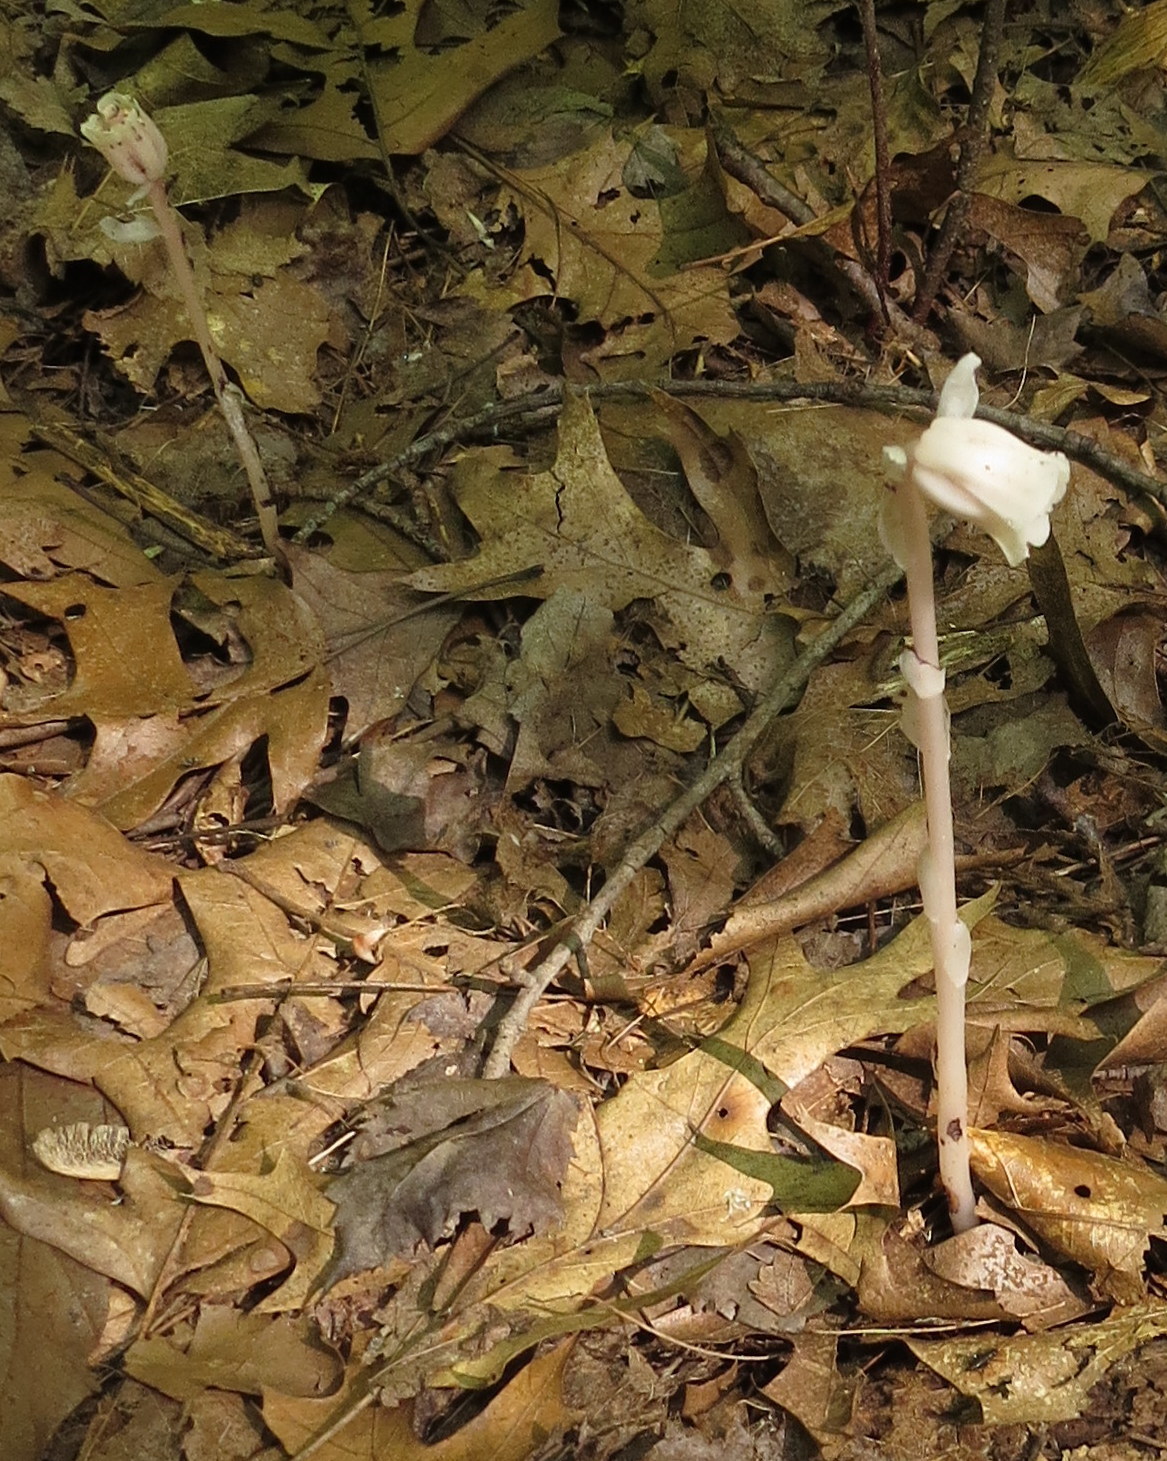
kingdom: Plantae
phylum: Tracheophyta
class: Magnoliopsida
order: Ericales
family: Ericaceae
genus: Monotropa
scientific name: Monotropa uniflora
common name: Convulsion root
